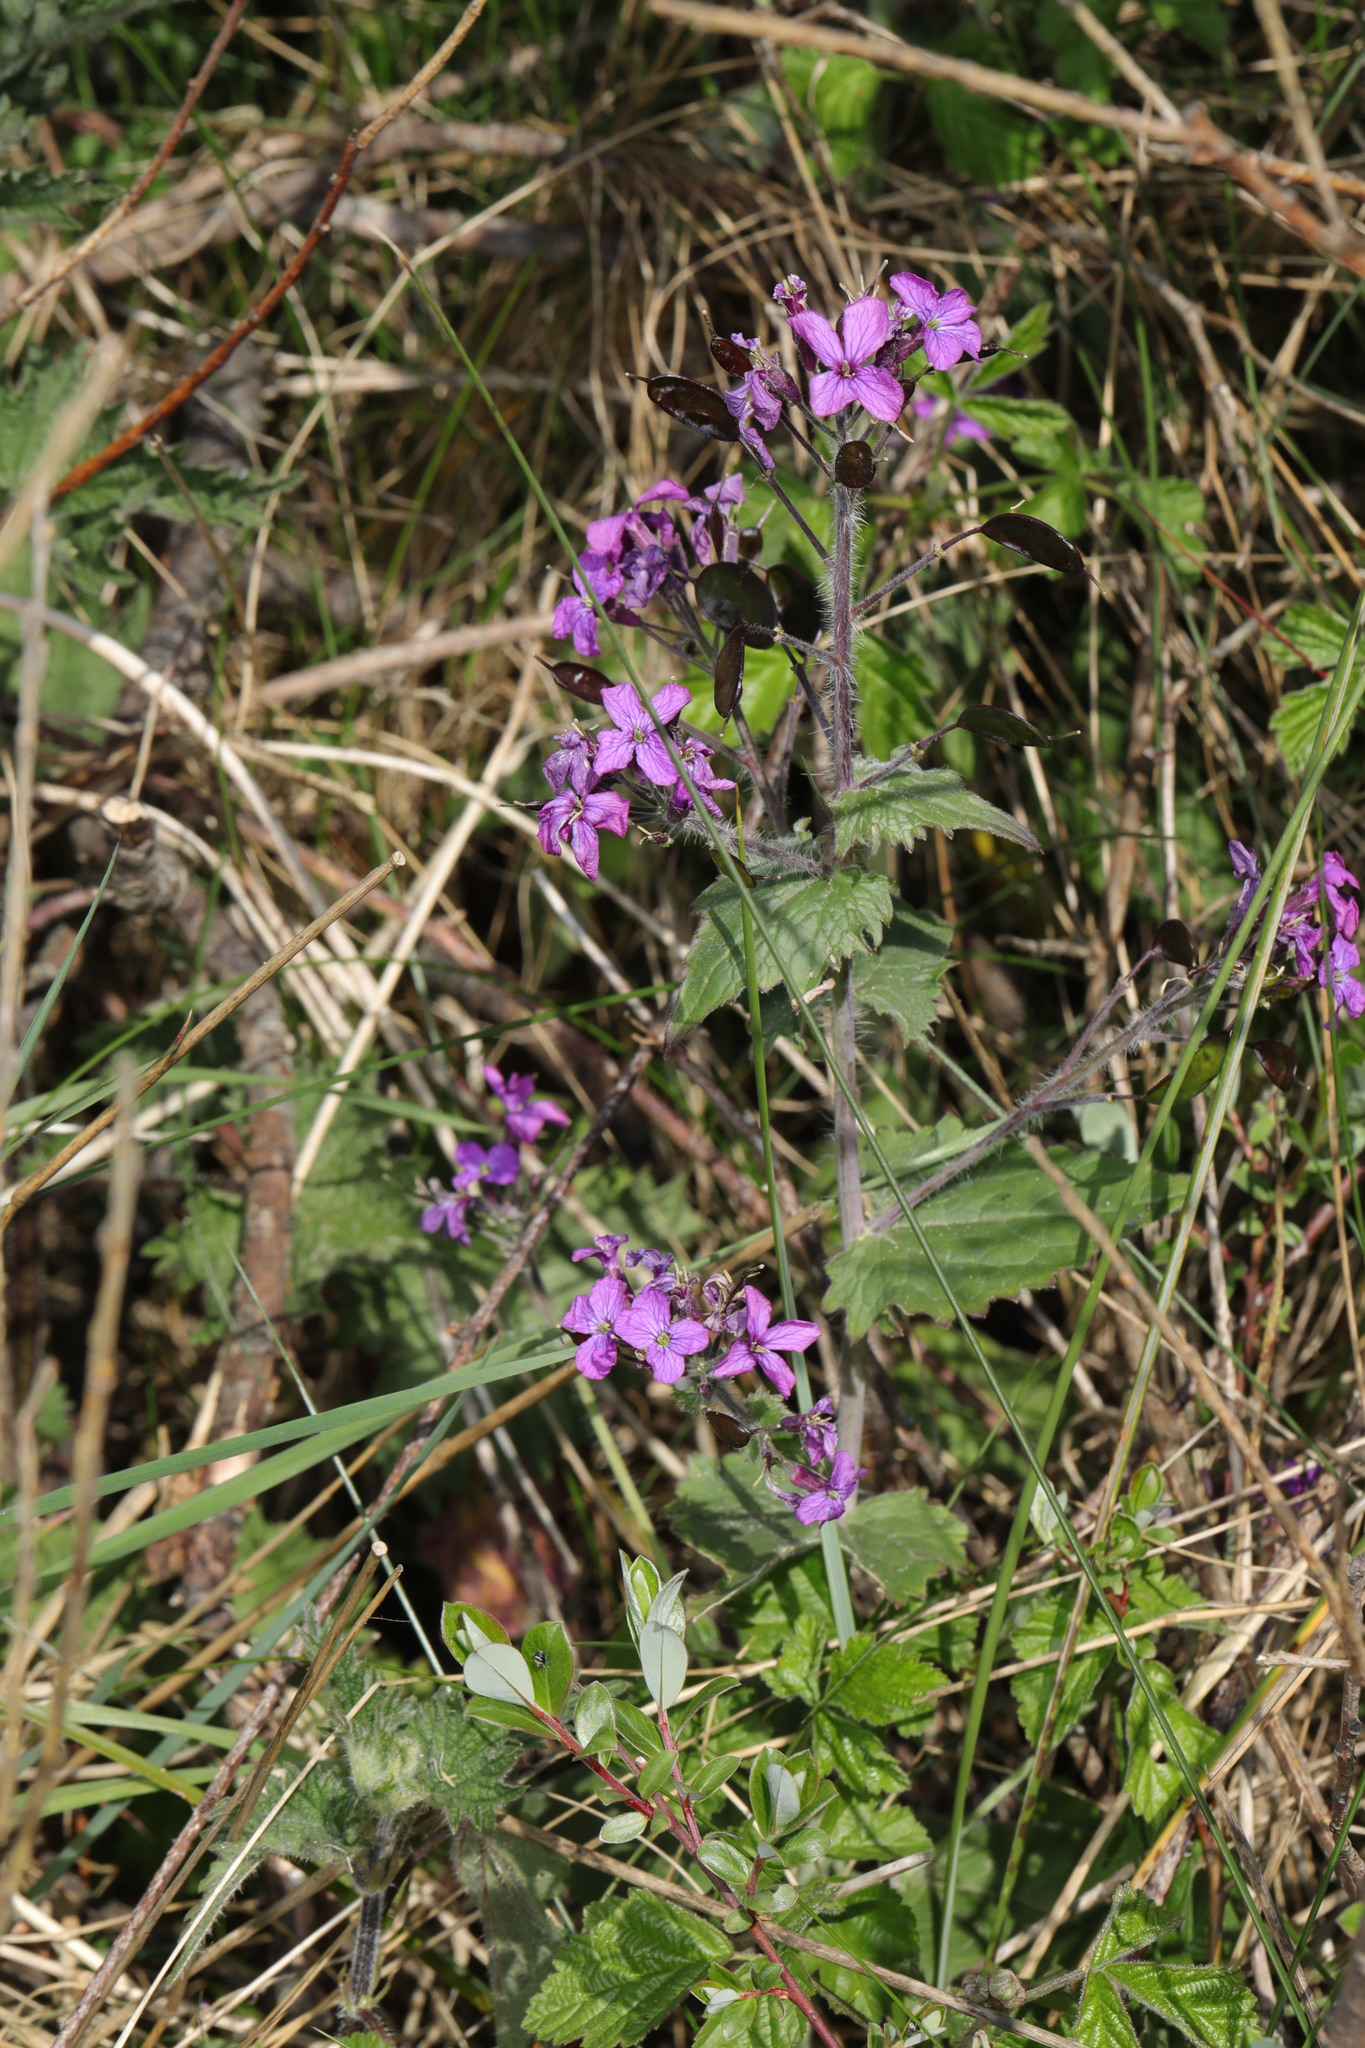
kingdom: Plantae
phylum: Tracheophyta
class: Magnoliopsida
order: Brassicales
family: Brassicaceae
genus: Lunaria
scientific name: Lunaria annua
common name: Honesty
